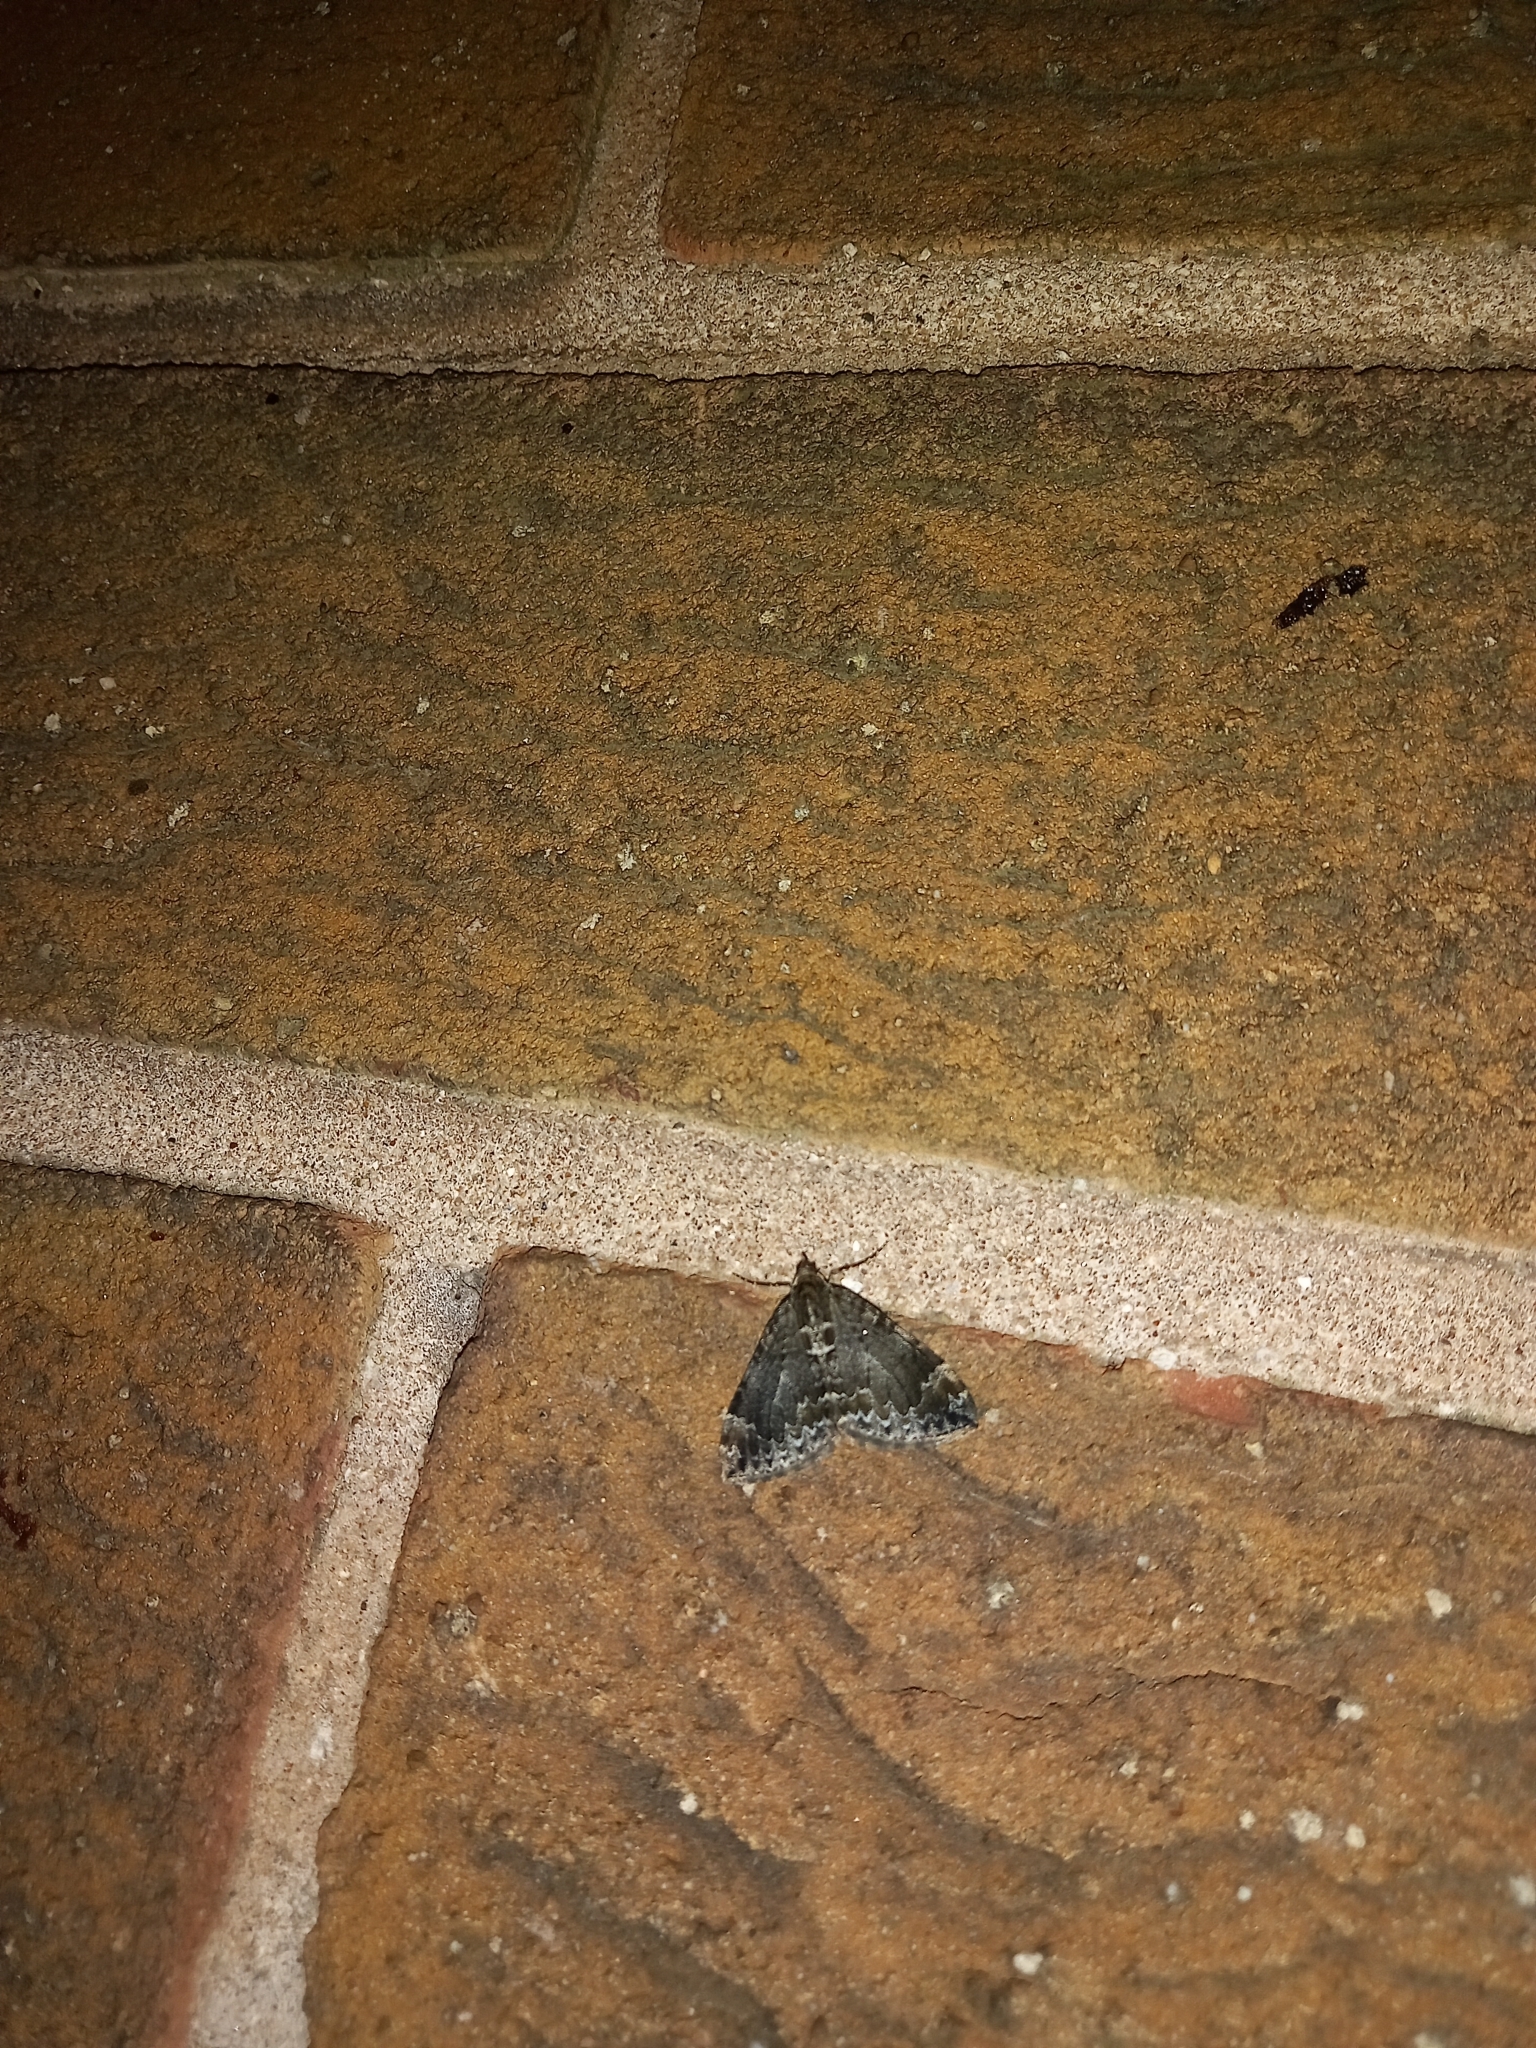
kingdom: Animalia
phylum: Arthropoda
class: Insecta
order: Lepidoptera
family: Geometridae
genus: Dysstroma
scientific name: Dysstroma truncata
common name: Common marbled carpet
